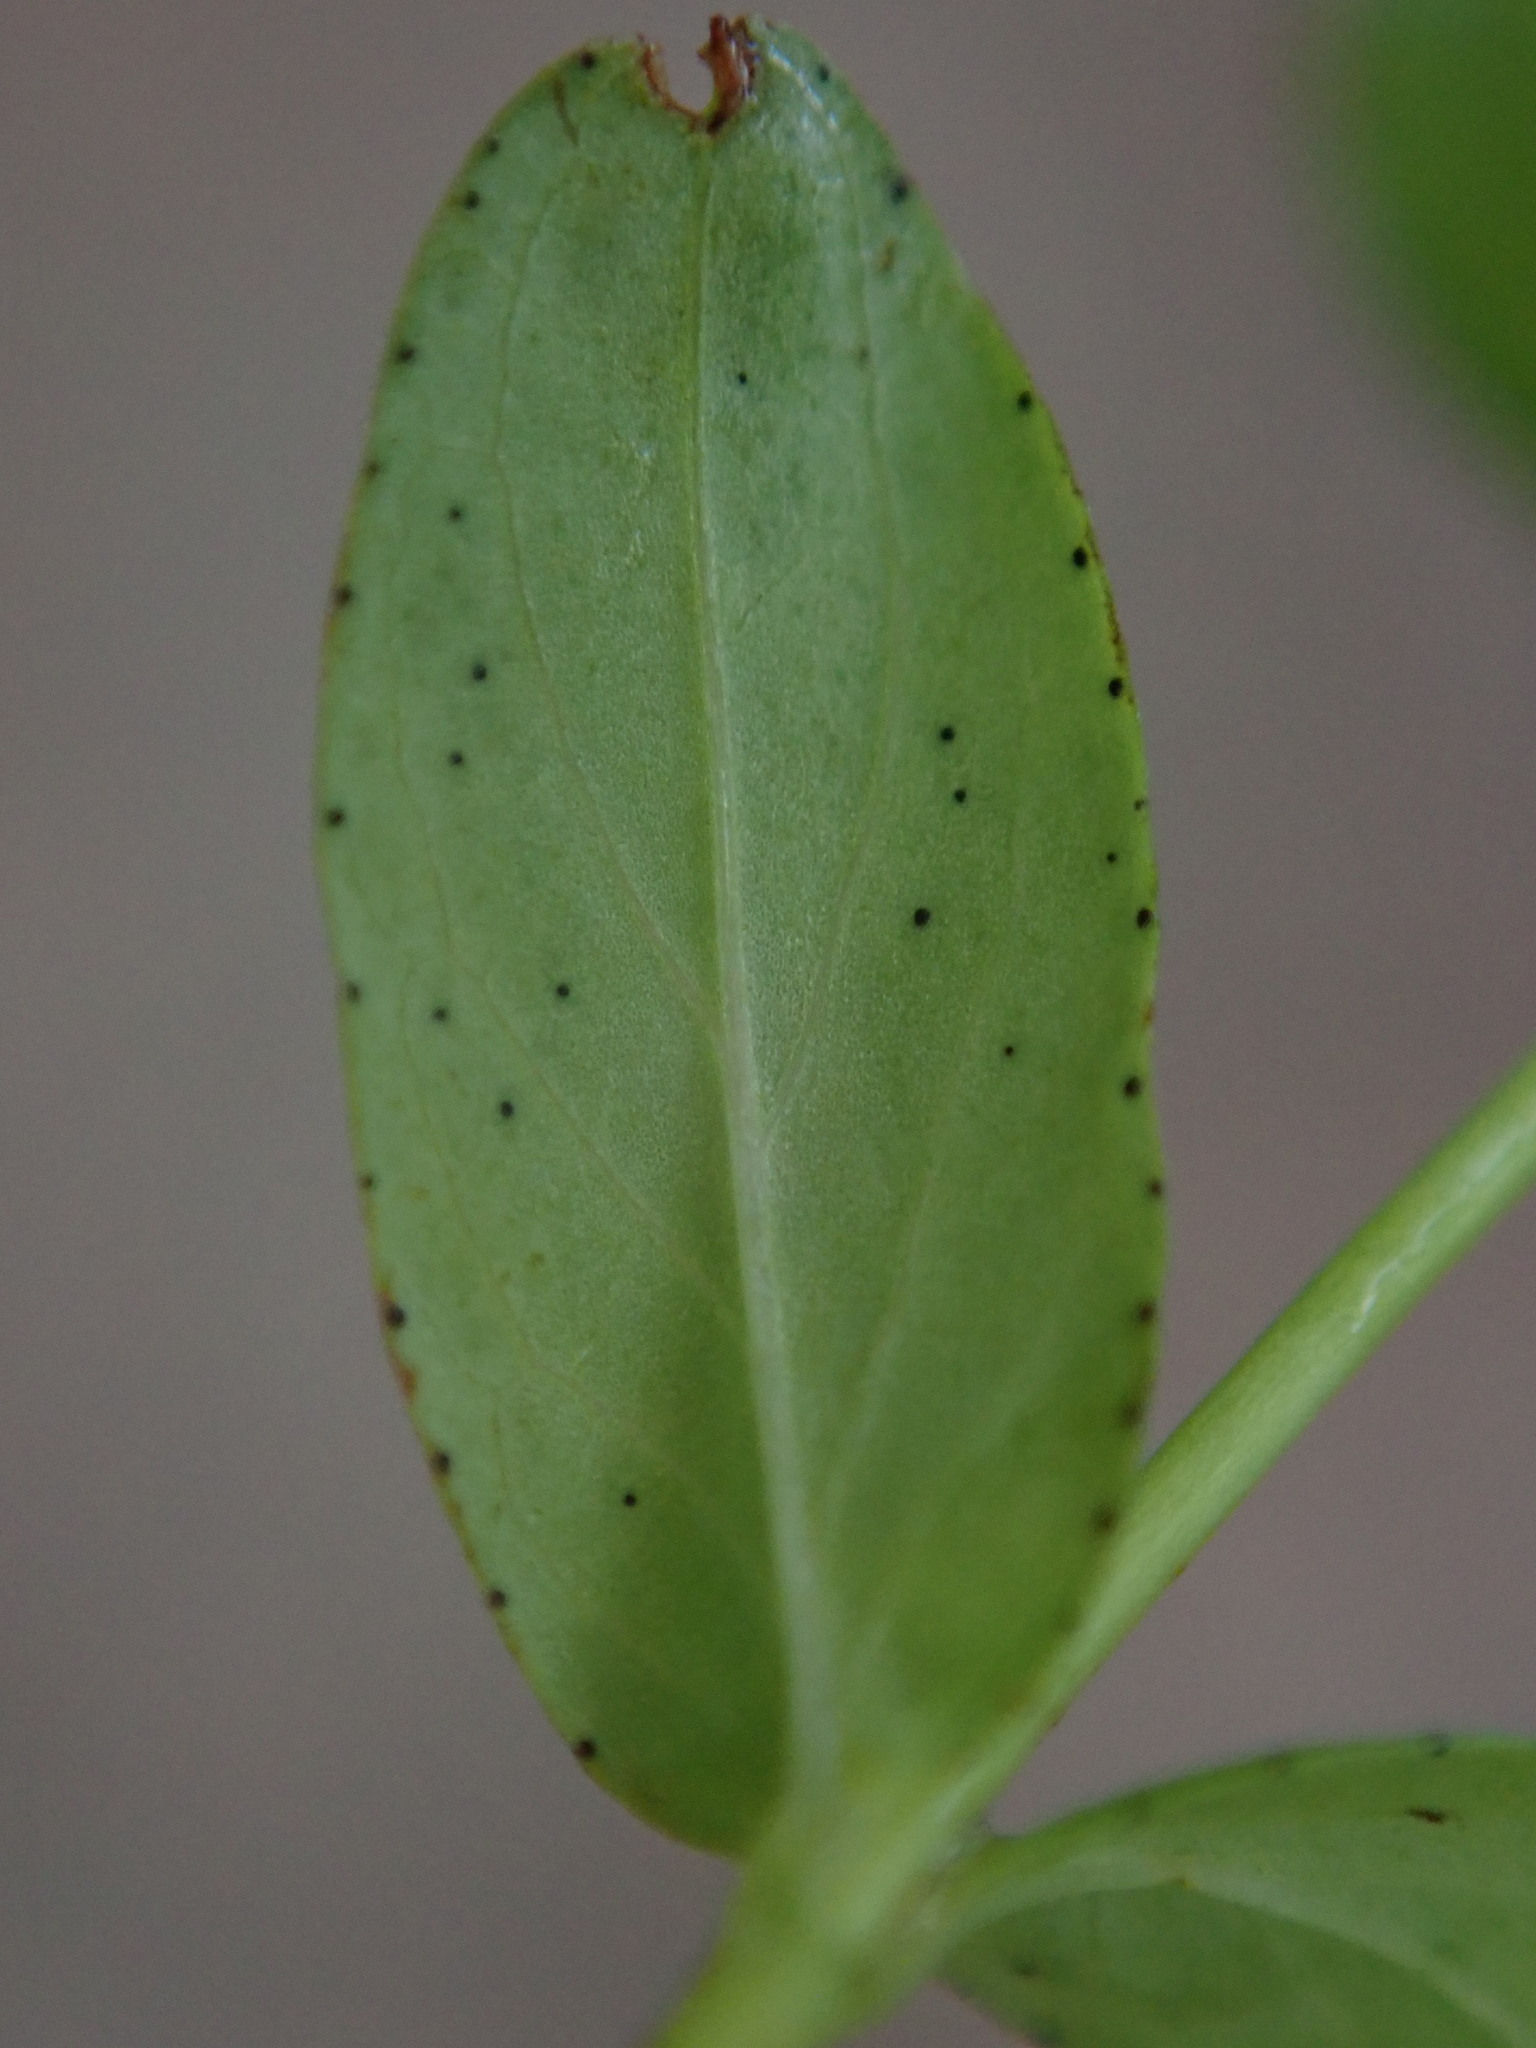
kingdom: Plantae
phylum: Tracheophyta
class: Magnoliopsida
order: Malpighiales
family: Hypericaceae
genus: Hypericum
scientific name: Hypericum humifusum
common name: Trailing st. john's-wort
